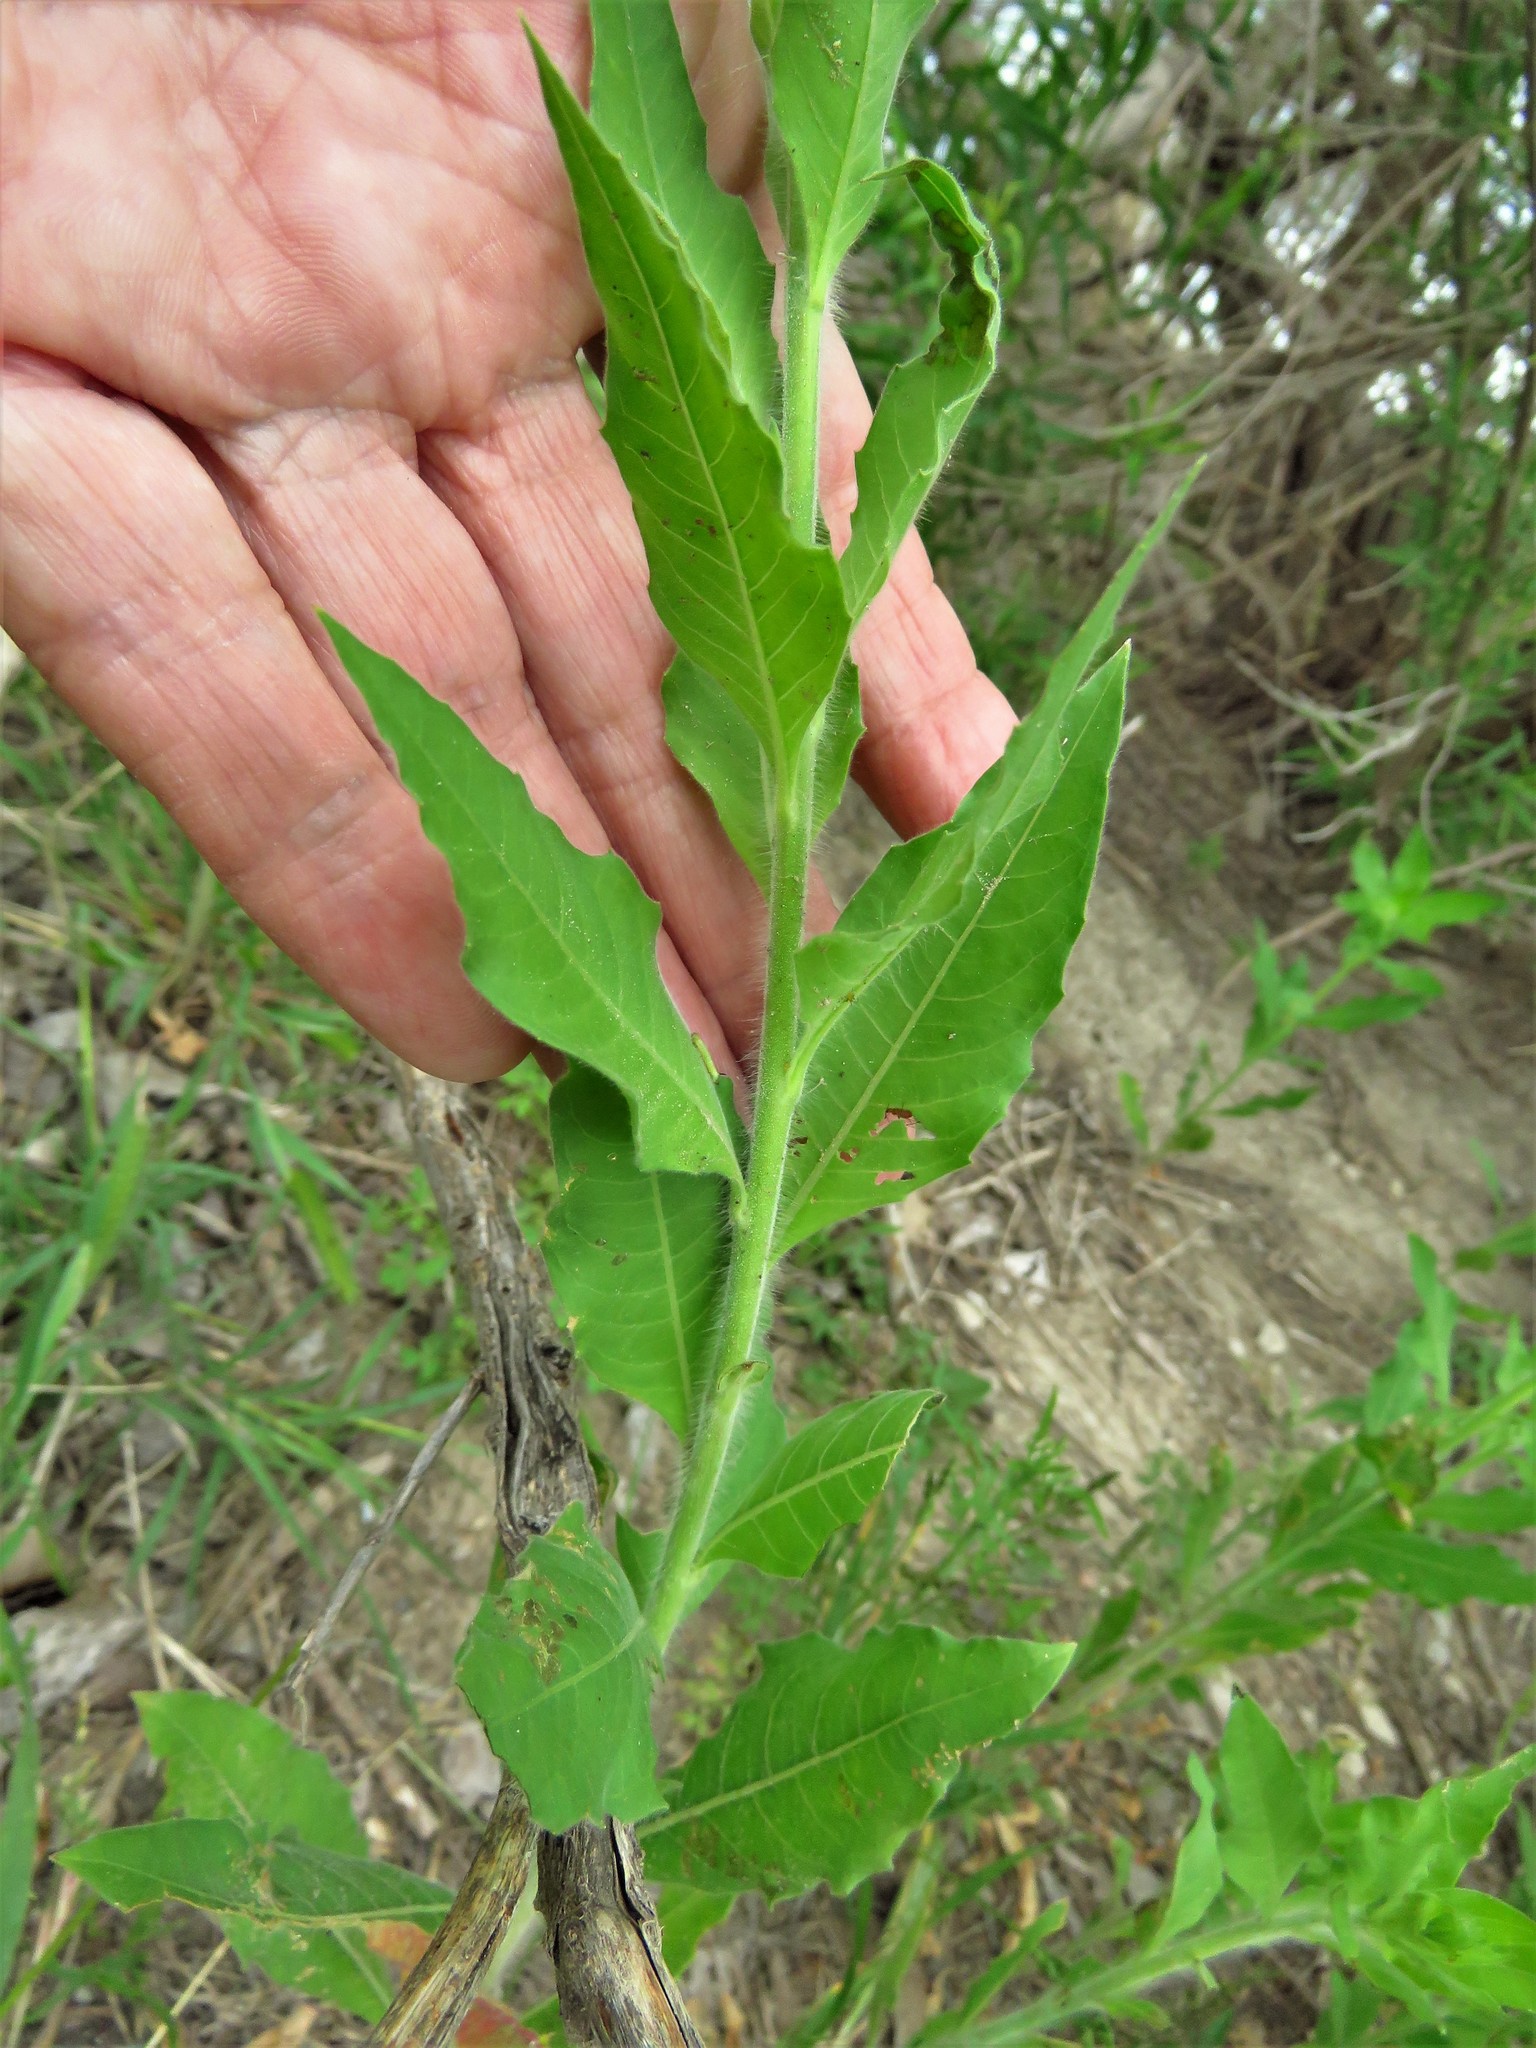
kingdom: Plantae
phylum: Tracheophyta
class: Magnoliopsida
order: Myrtales
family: Onagraceae
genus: Oenothera
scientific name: Oenothera curtiflora
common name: Velvetweed
